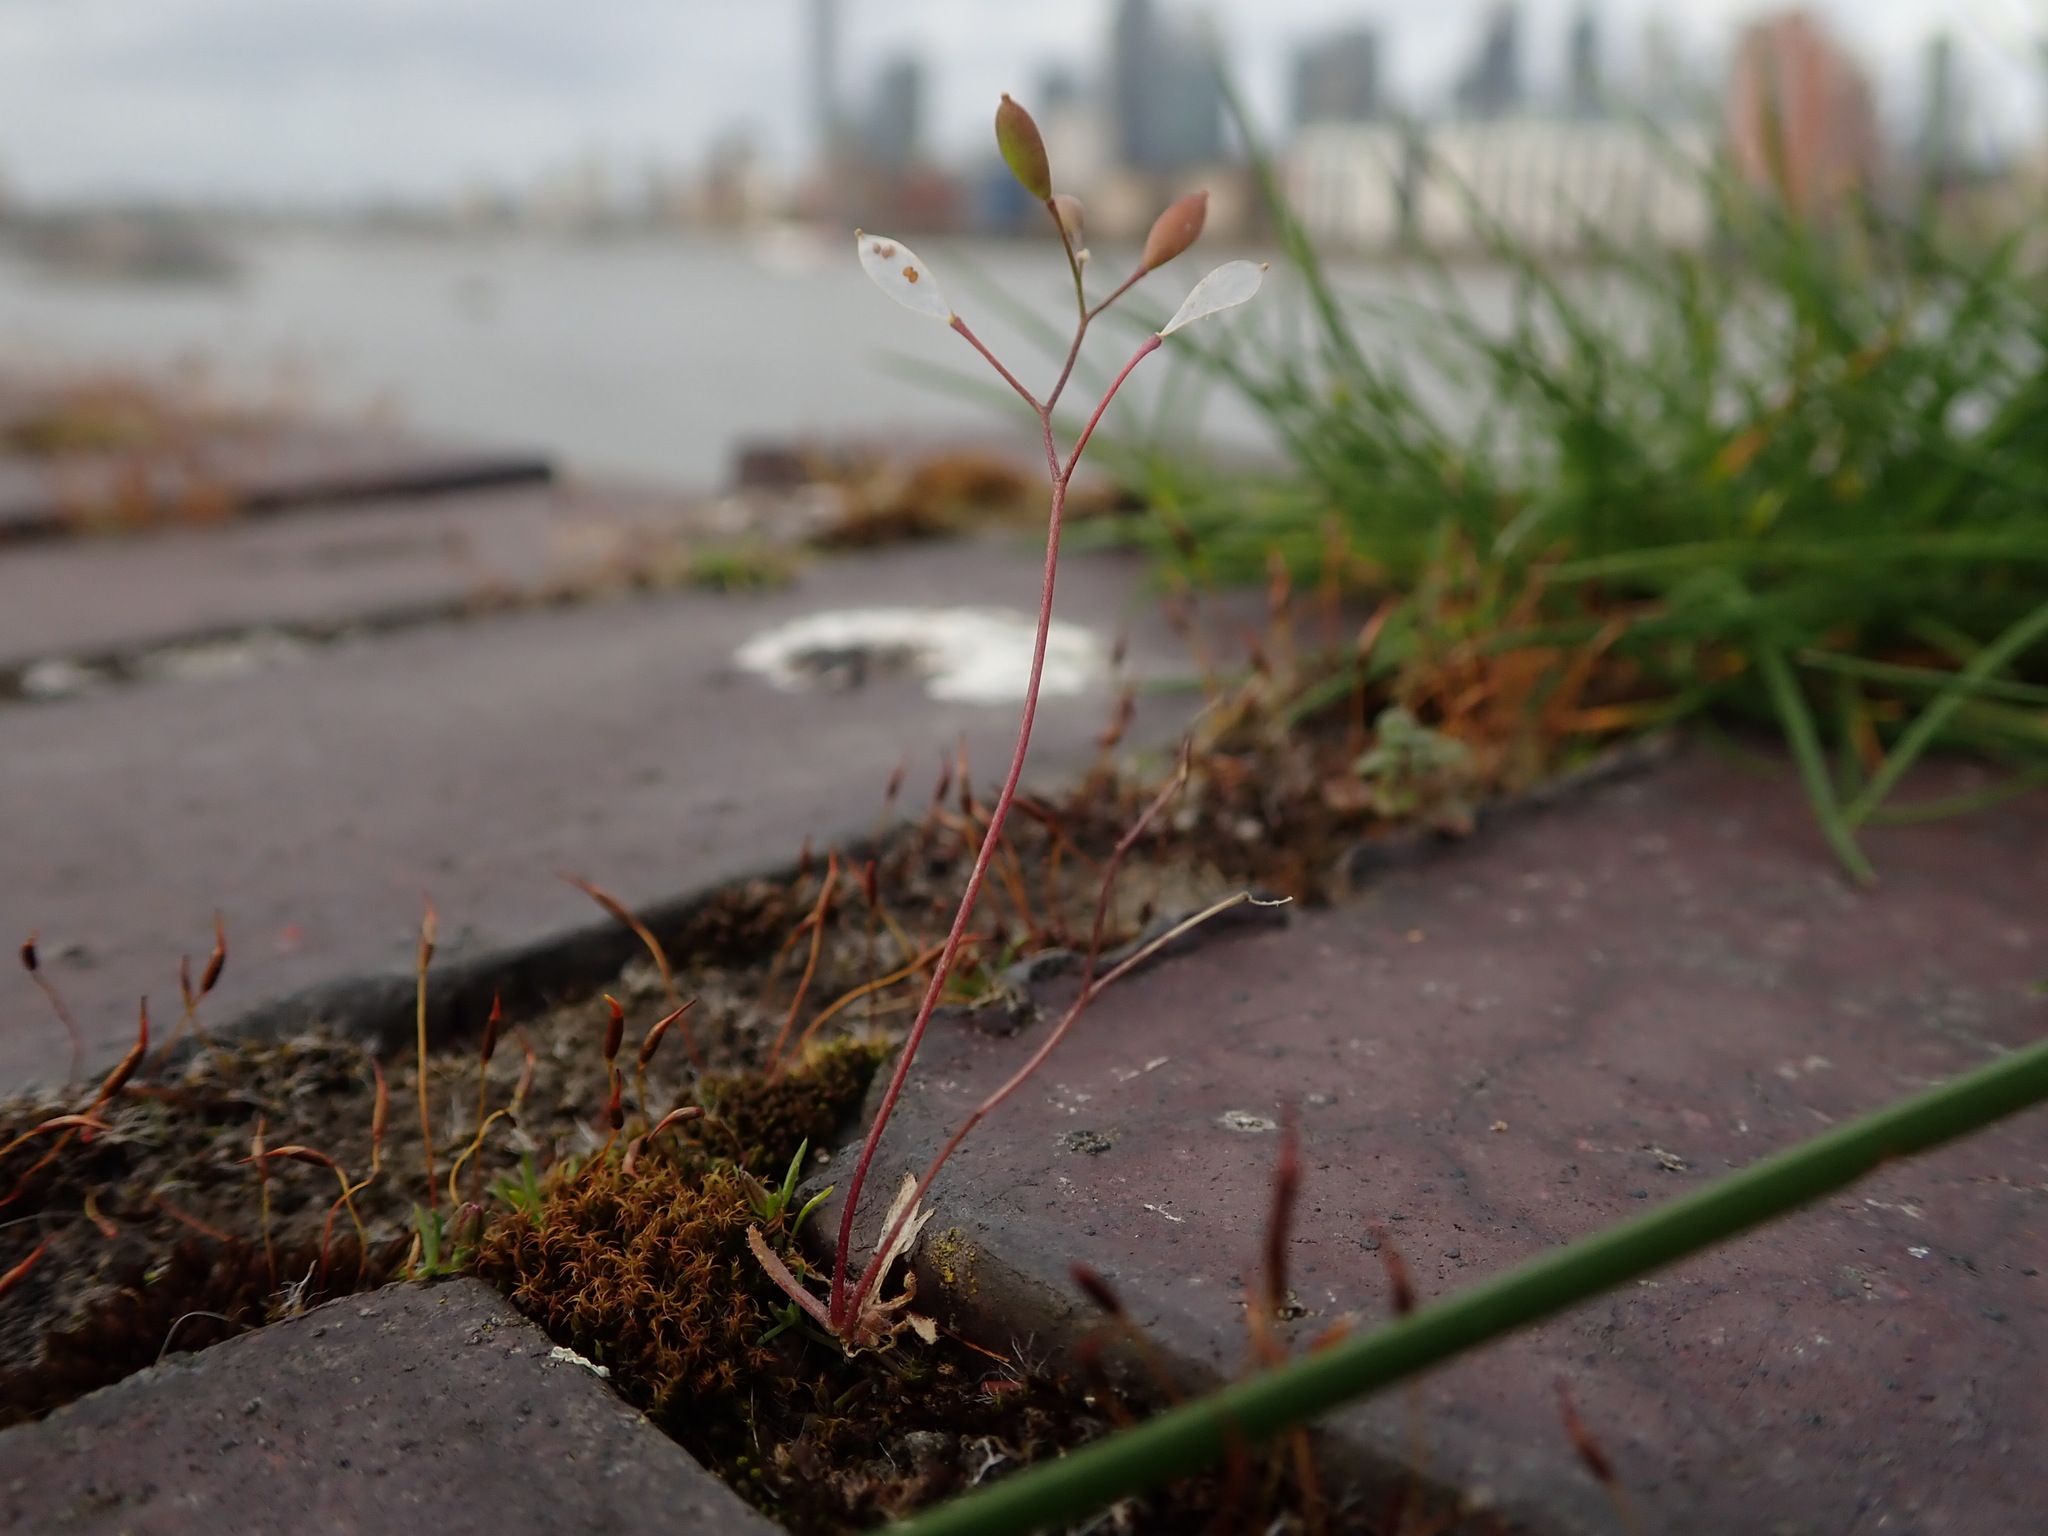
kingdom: Plantae
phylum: Tracheophyta
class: Magnoliopsida
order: Brassicales
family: Brassicaceae
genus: Draba
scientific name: Draba verna
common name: Spring draba
